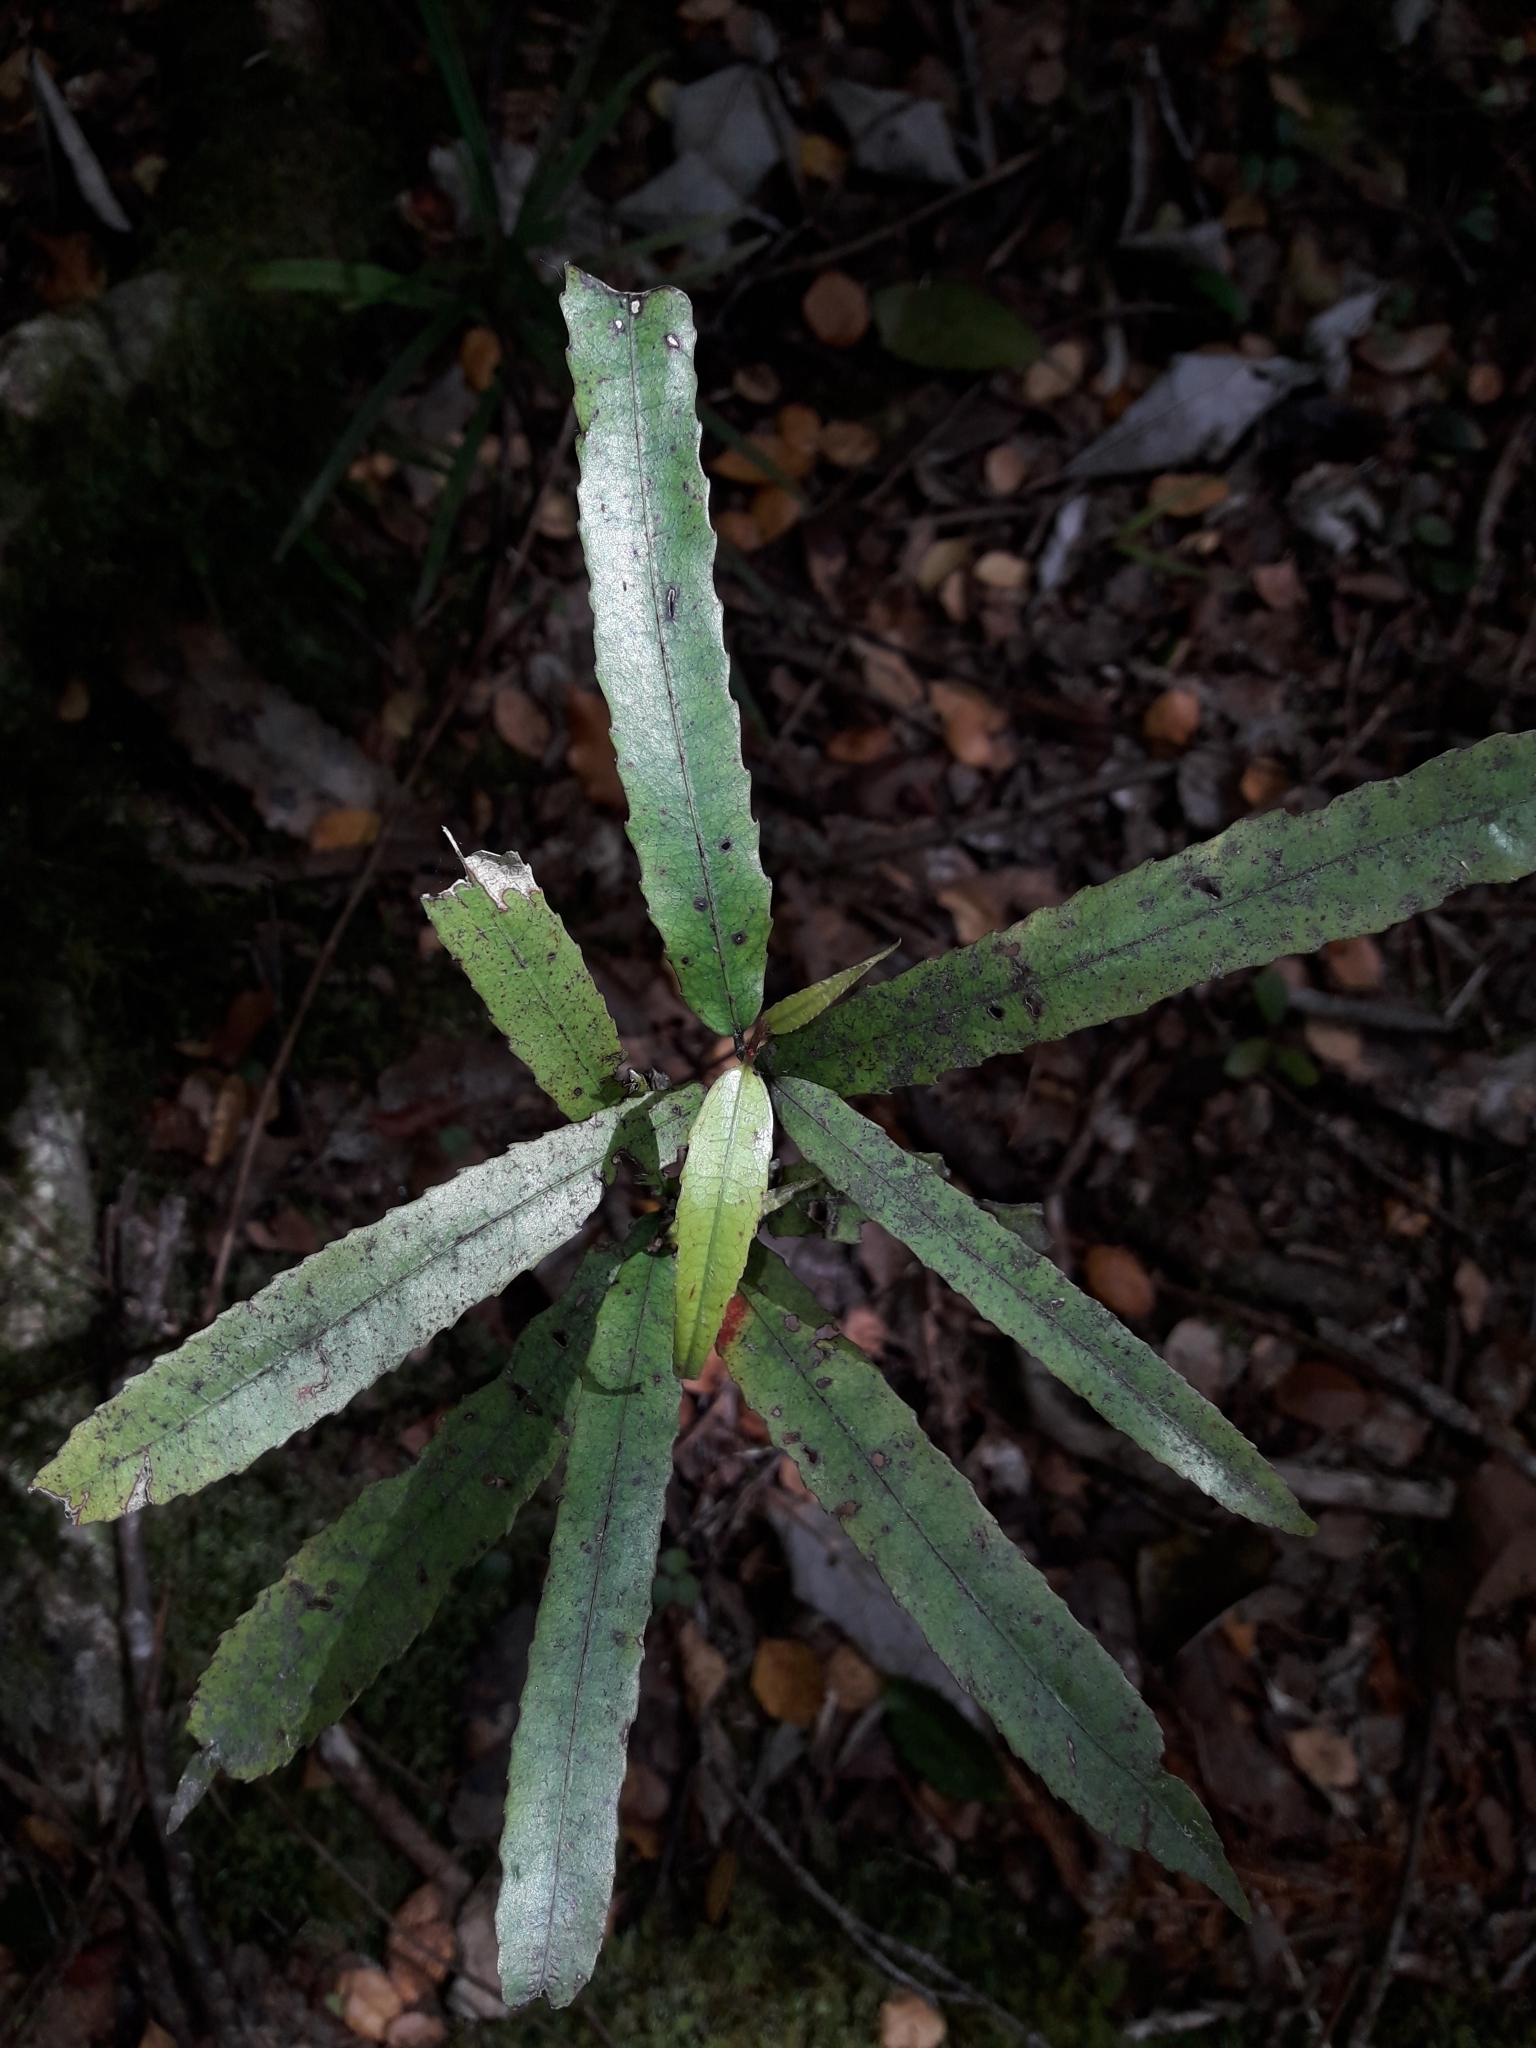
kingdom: Plantae
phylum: Tracheophyta
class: Magnoliopsida
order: Oxalidales
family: Elaeocarpaceae
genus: Elaeocarpus
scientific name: Elaeocarpus dentatus
